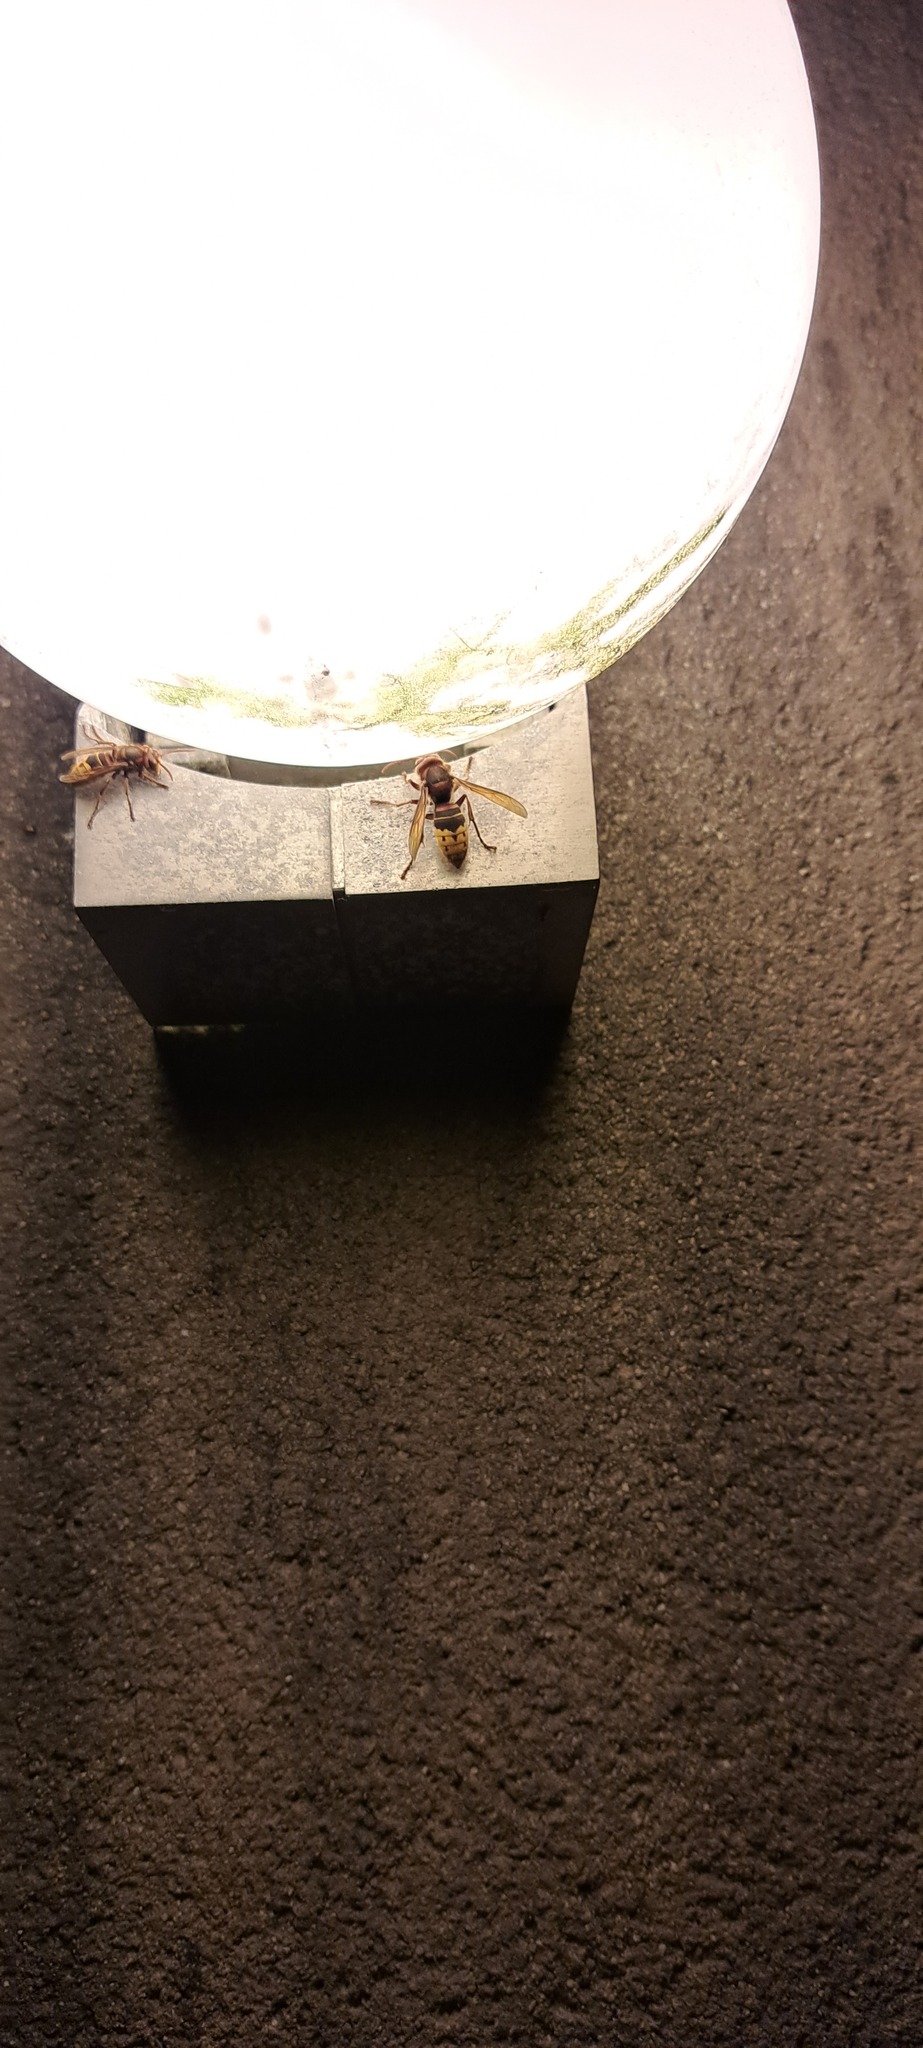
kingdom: Animalia
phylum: Arthropoda
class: Insecta
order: Hymenoptera
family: Vespidae
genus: Vespa
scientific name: Vespa crabro
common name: Hornet
